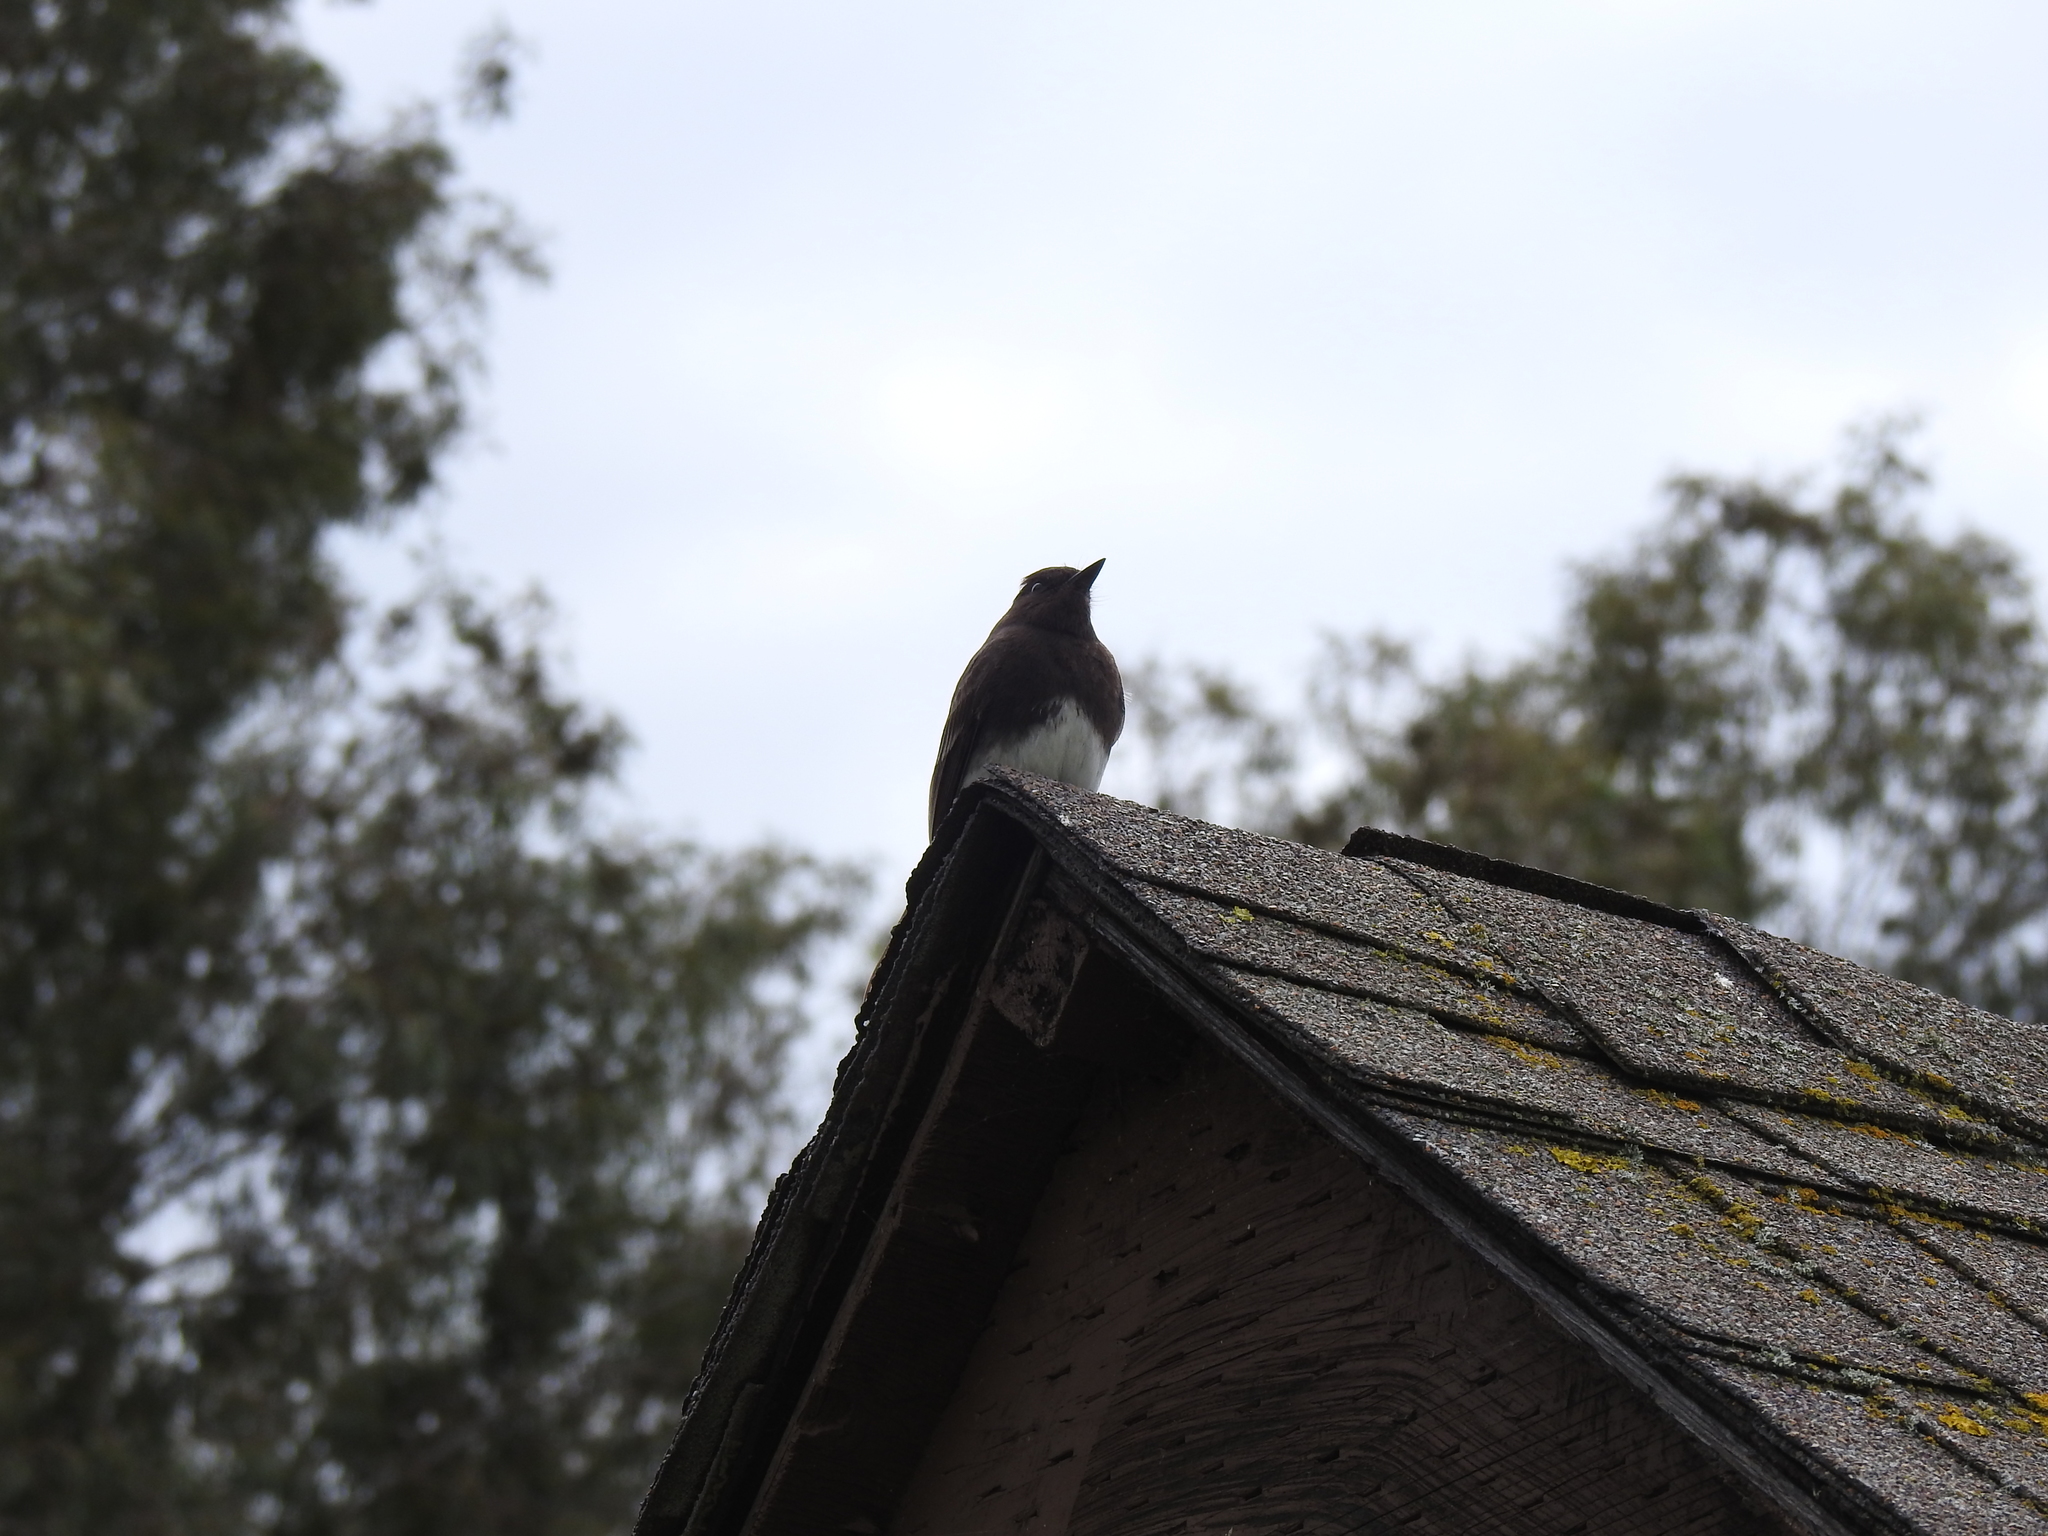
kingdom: Animalia
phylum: Chordata
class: Aves
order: Passeriformes
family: Tyrannidae
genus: Sayornis
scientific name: Sayornis nigricans
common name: Black phoebe
